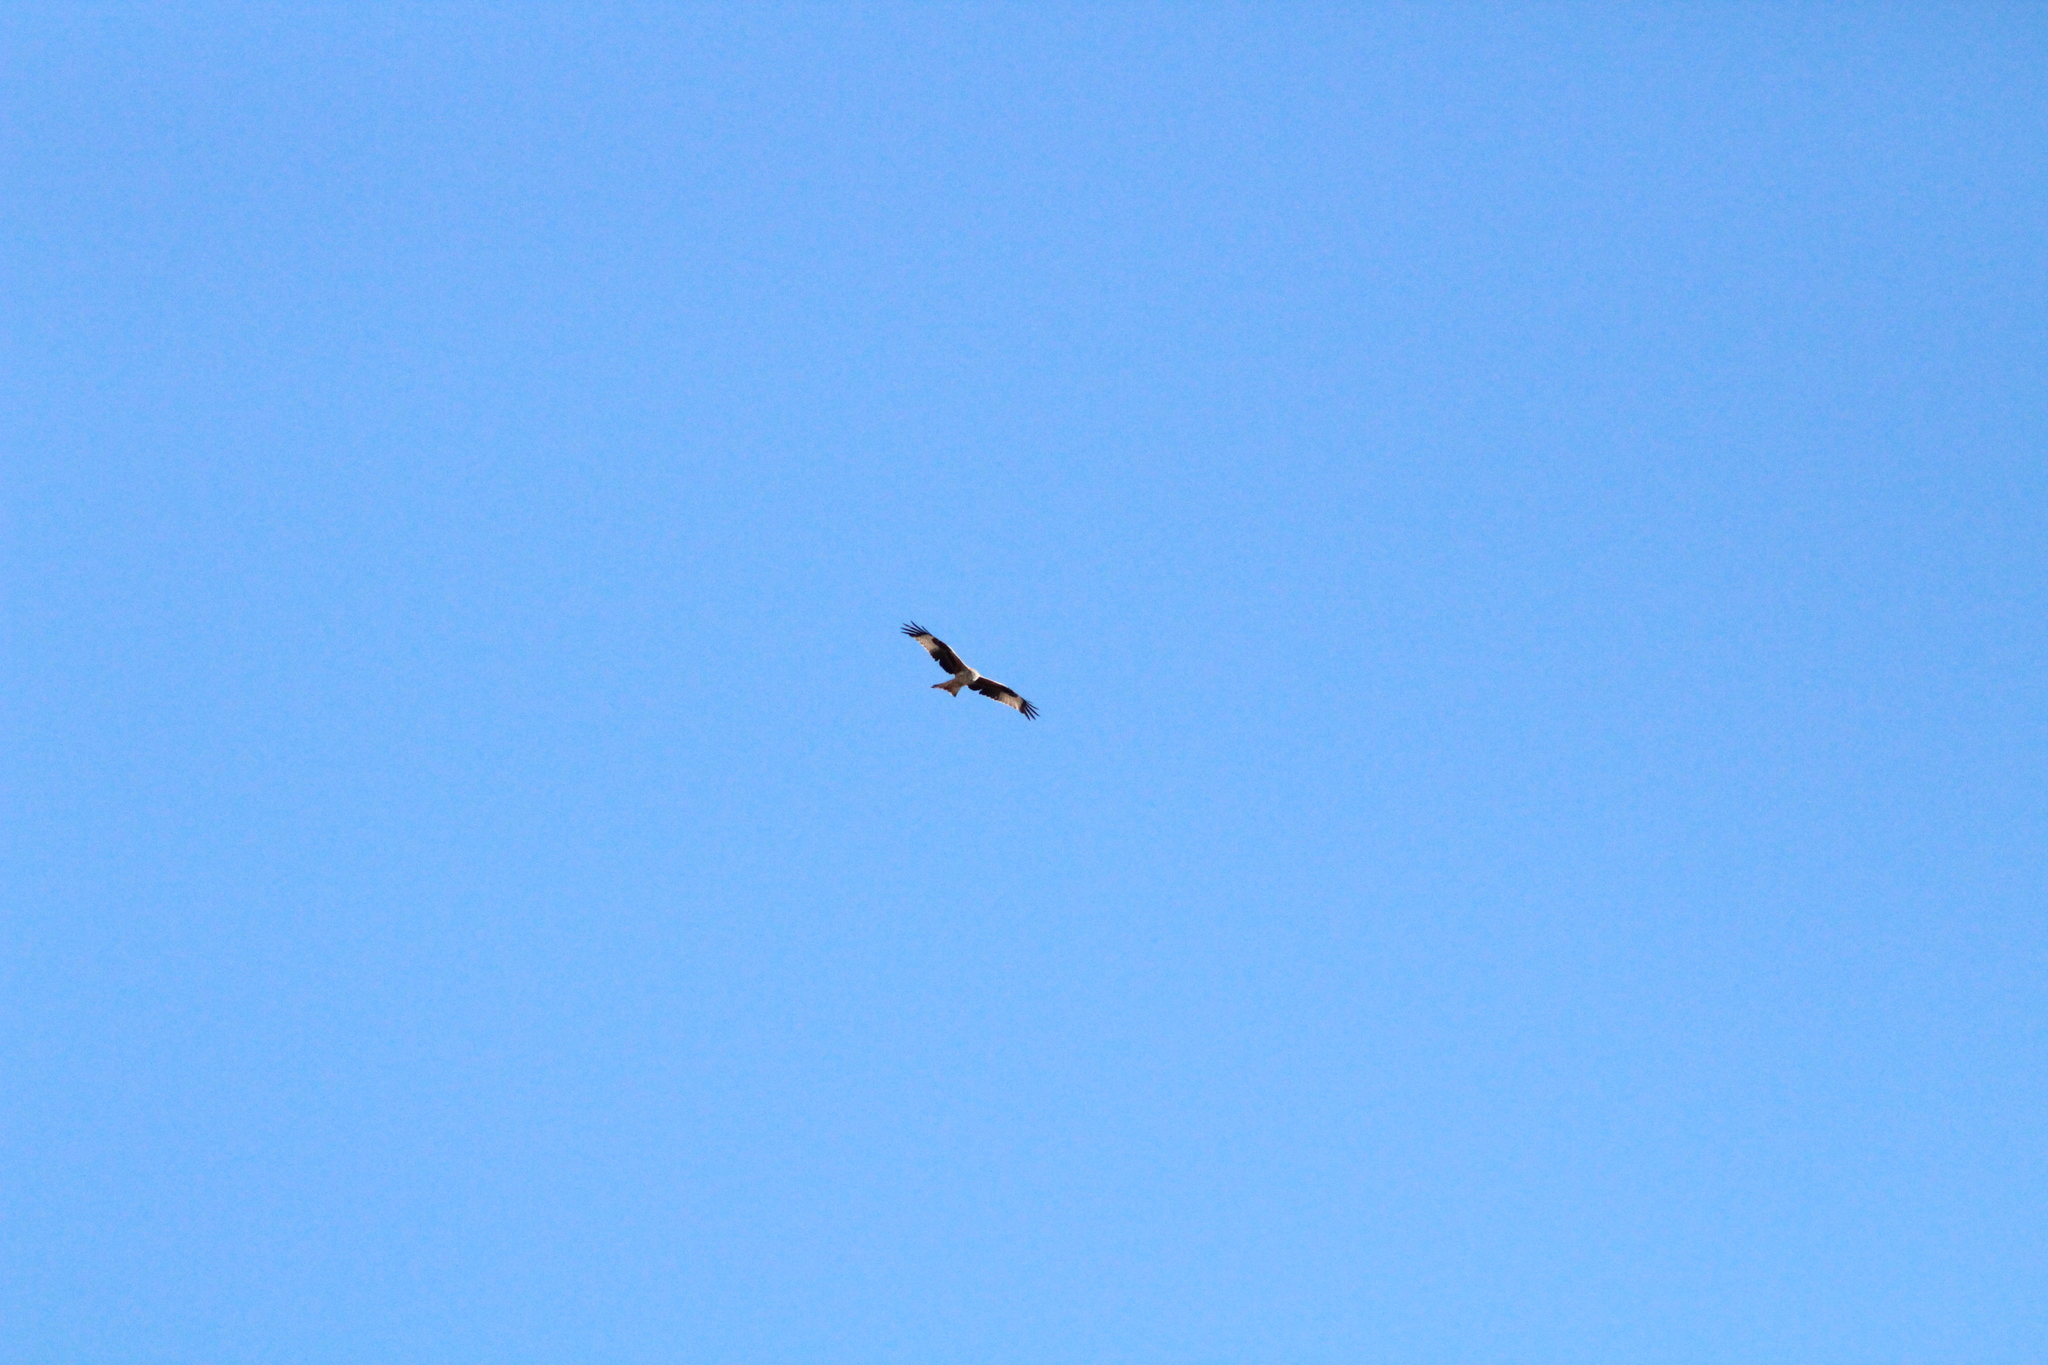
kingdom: Animalia
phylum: Chordata
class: Aves
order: Accipitriformes
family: Accipitridae
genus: Milvus
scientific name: Milvus milvus
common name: Red kite
